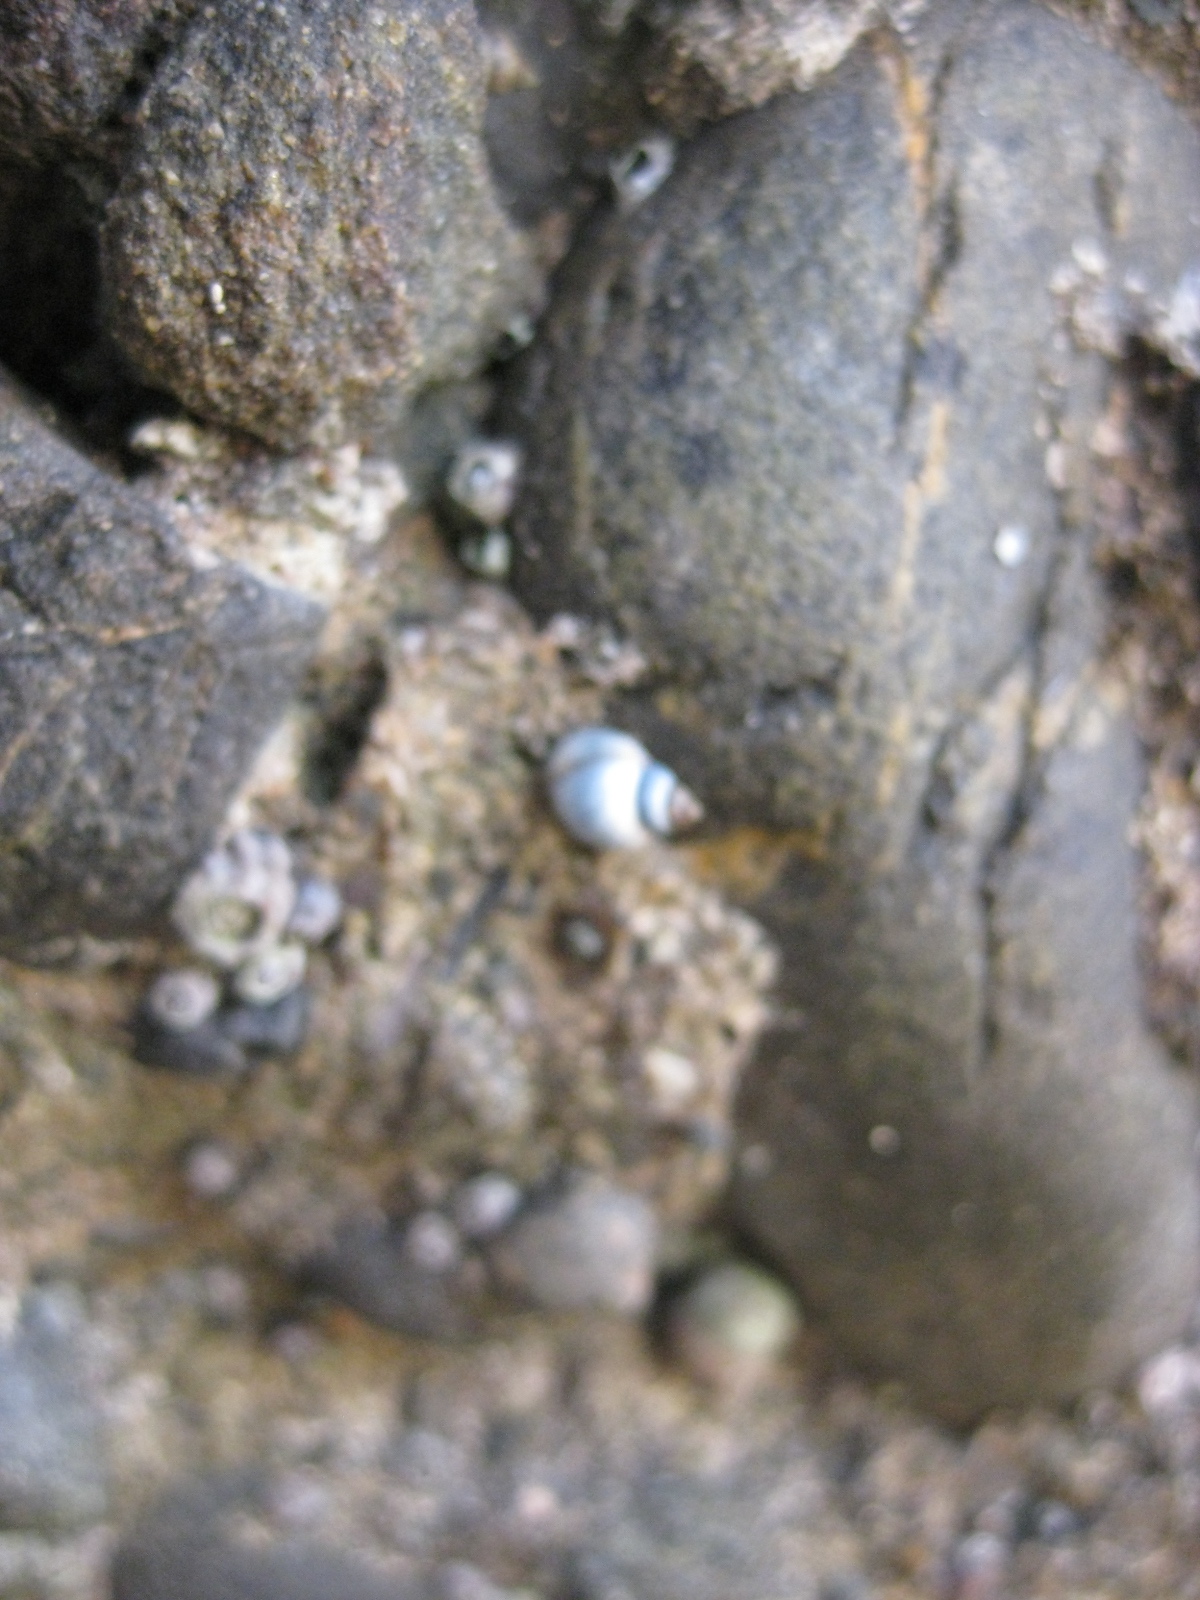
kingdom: Animalia
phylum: Mollusca
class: Gastropoda
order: Littorinimorpha
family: Littorinidae
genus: Austrolittorina
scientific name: Austrolittorina antipodum
